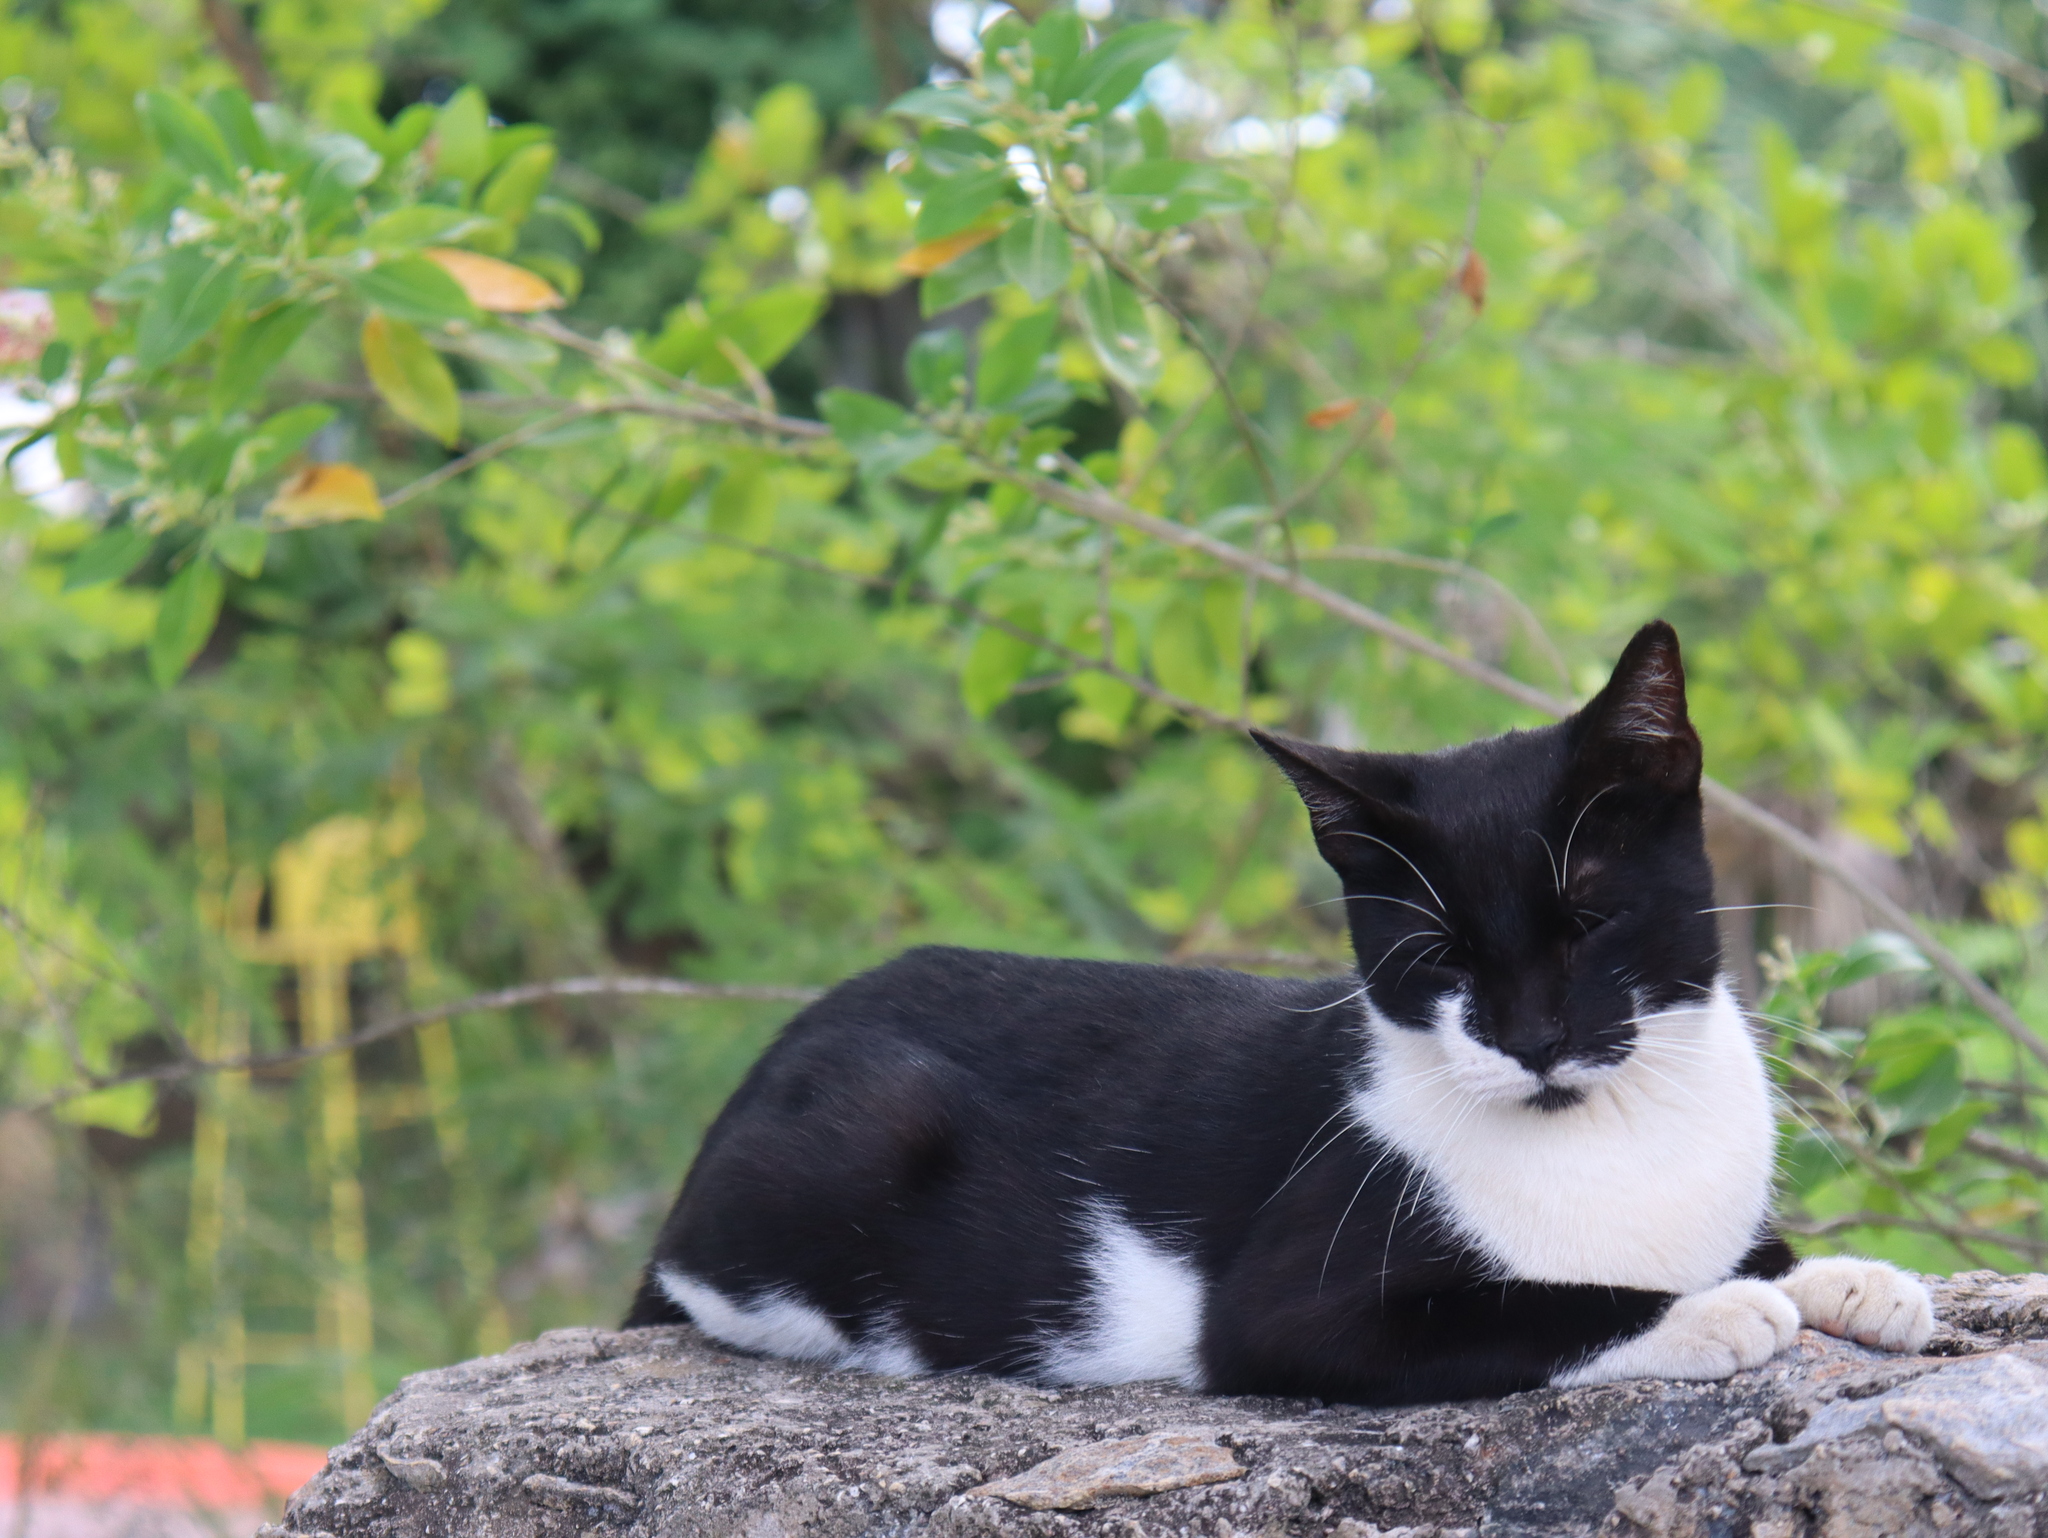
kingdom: Animalia
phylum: Chordata
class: Mammalia
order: Carnivora
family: Felidae
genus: Felis
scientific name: Felis catus
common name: Domestic cat
